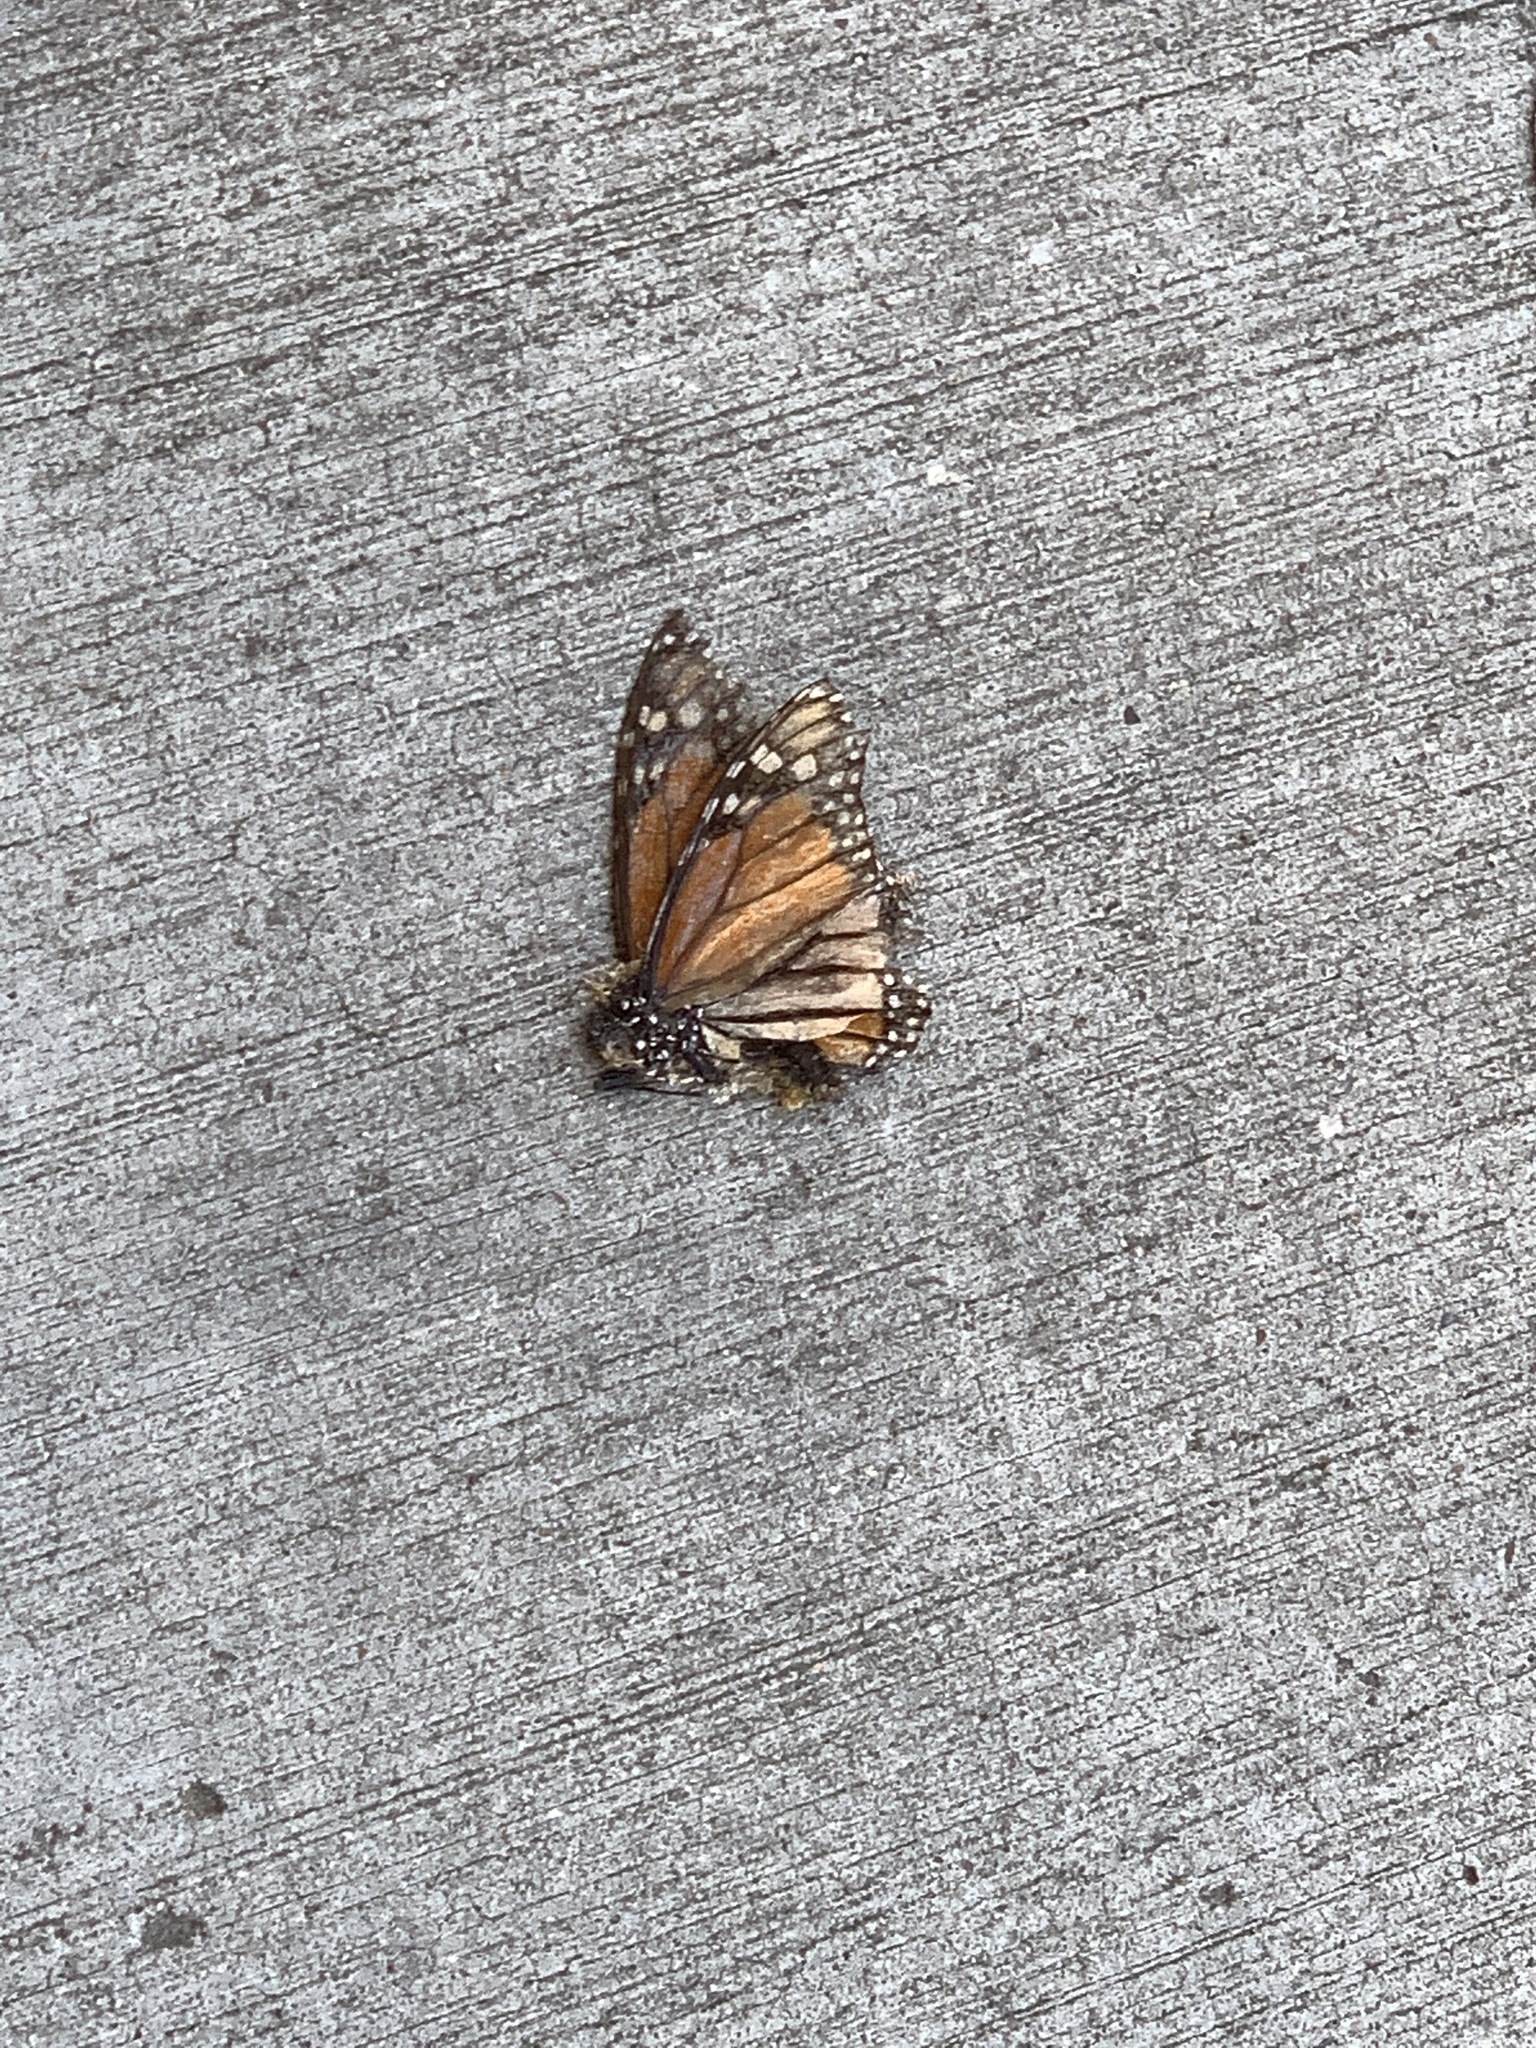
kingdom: Animalia
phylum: Arthropoda
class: Insecta
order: Lepidoptera
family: Nymphalidae
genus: Danaus
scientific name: Danaus plexippus
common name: Monarch
